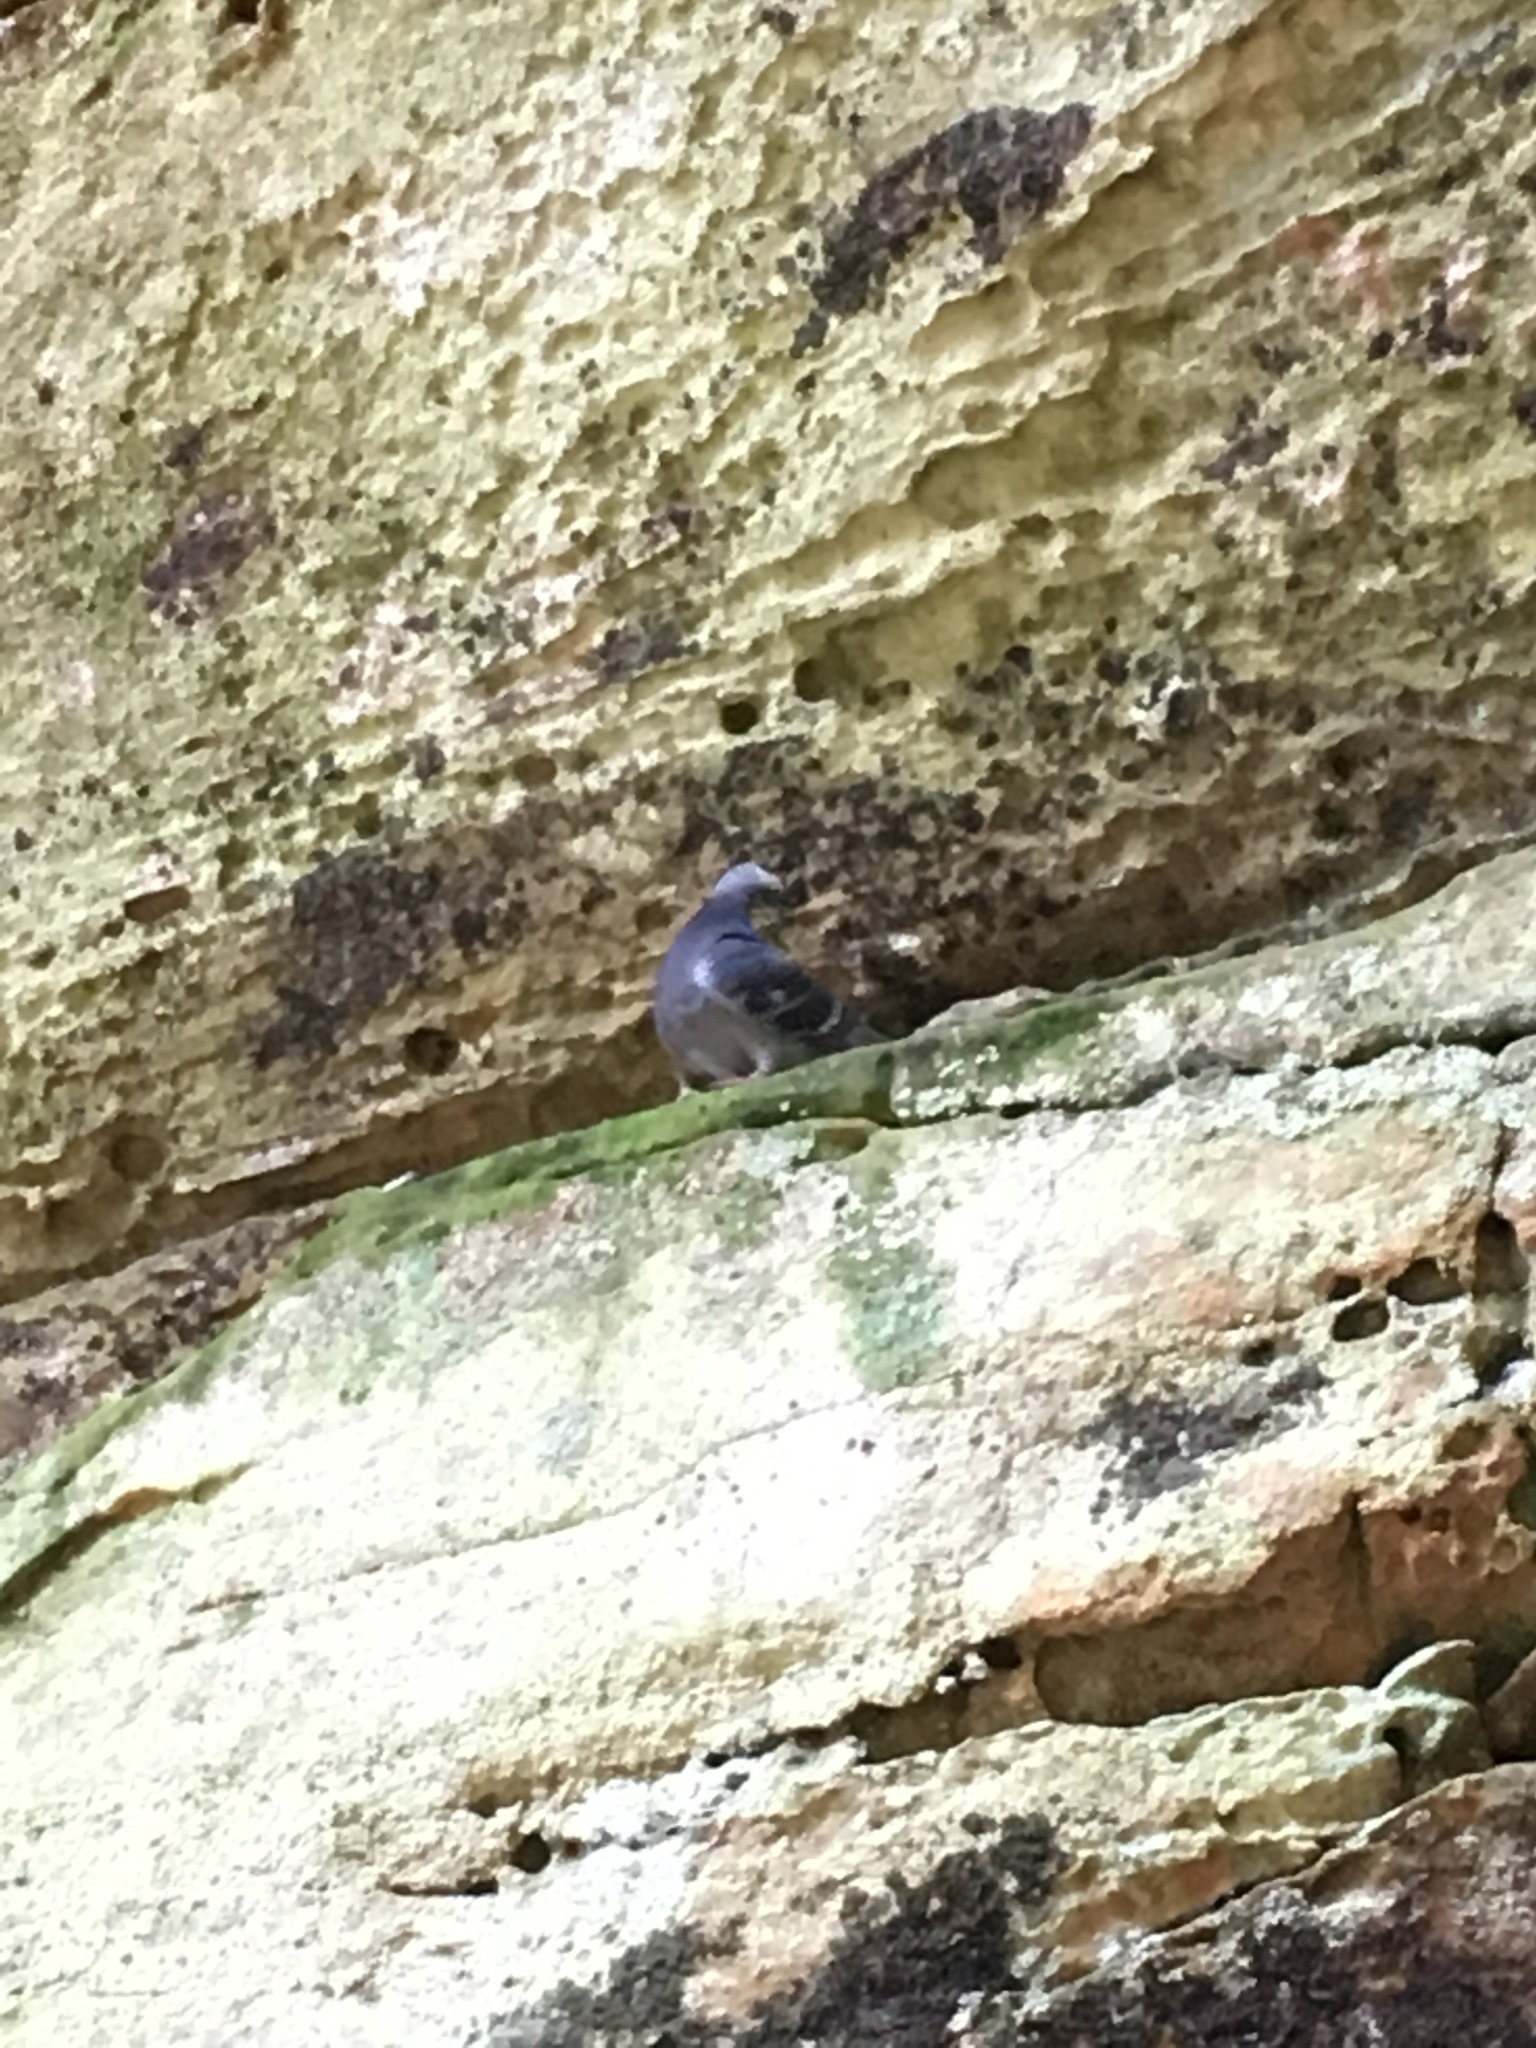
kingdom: Animalia
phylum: Chordata
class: Aves
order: Columbiformes
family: Columbidae
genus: Columba
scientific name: Columba livia
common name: Rock pigeon
